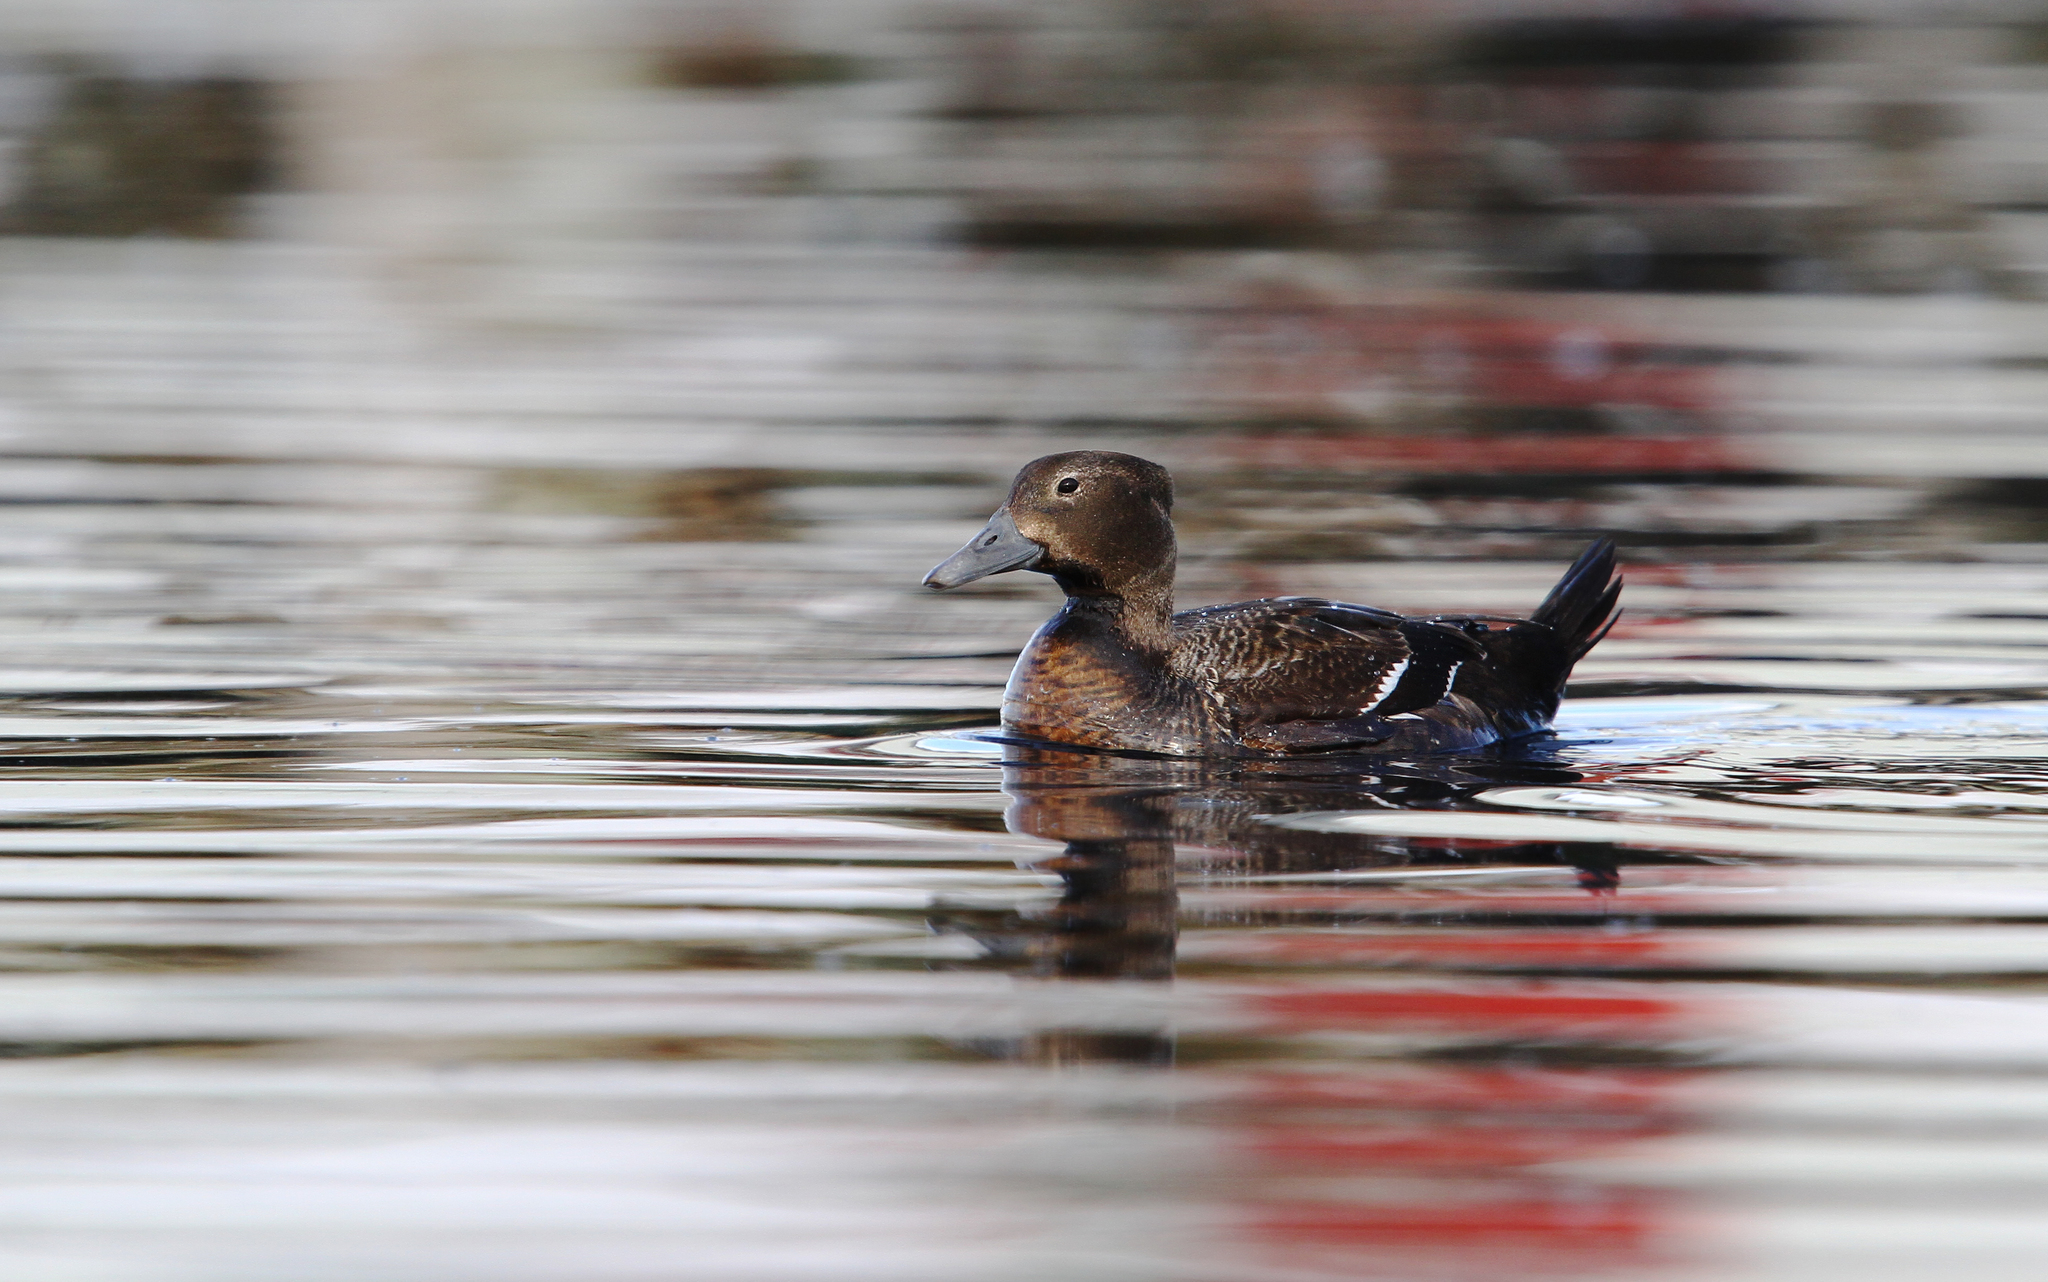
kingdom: Animalia
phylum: Chordata
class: Aves
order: Anseriformes
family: Anatidae
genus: Polysticta
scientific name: Polysticta stelleri
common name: Steller's eider
